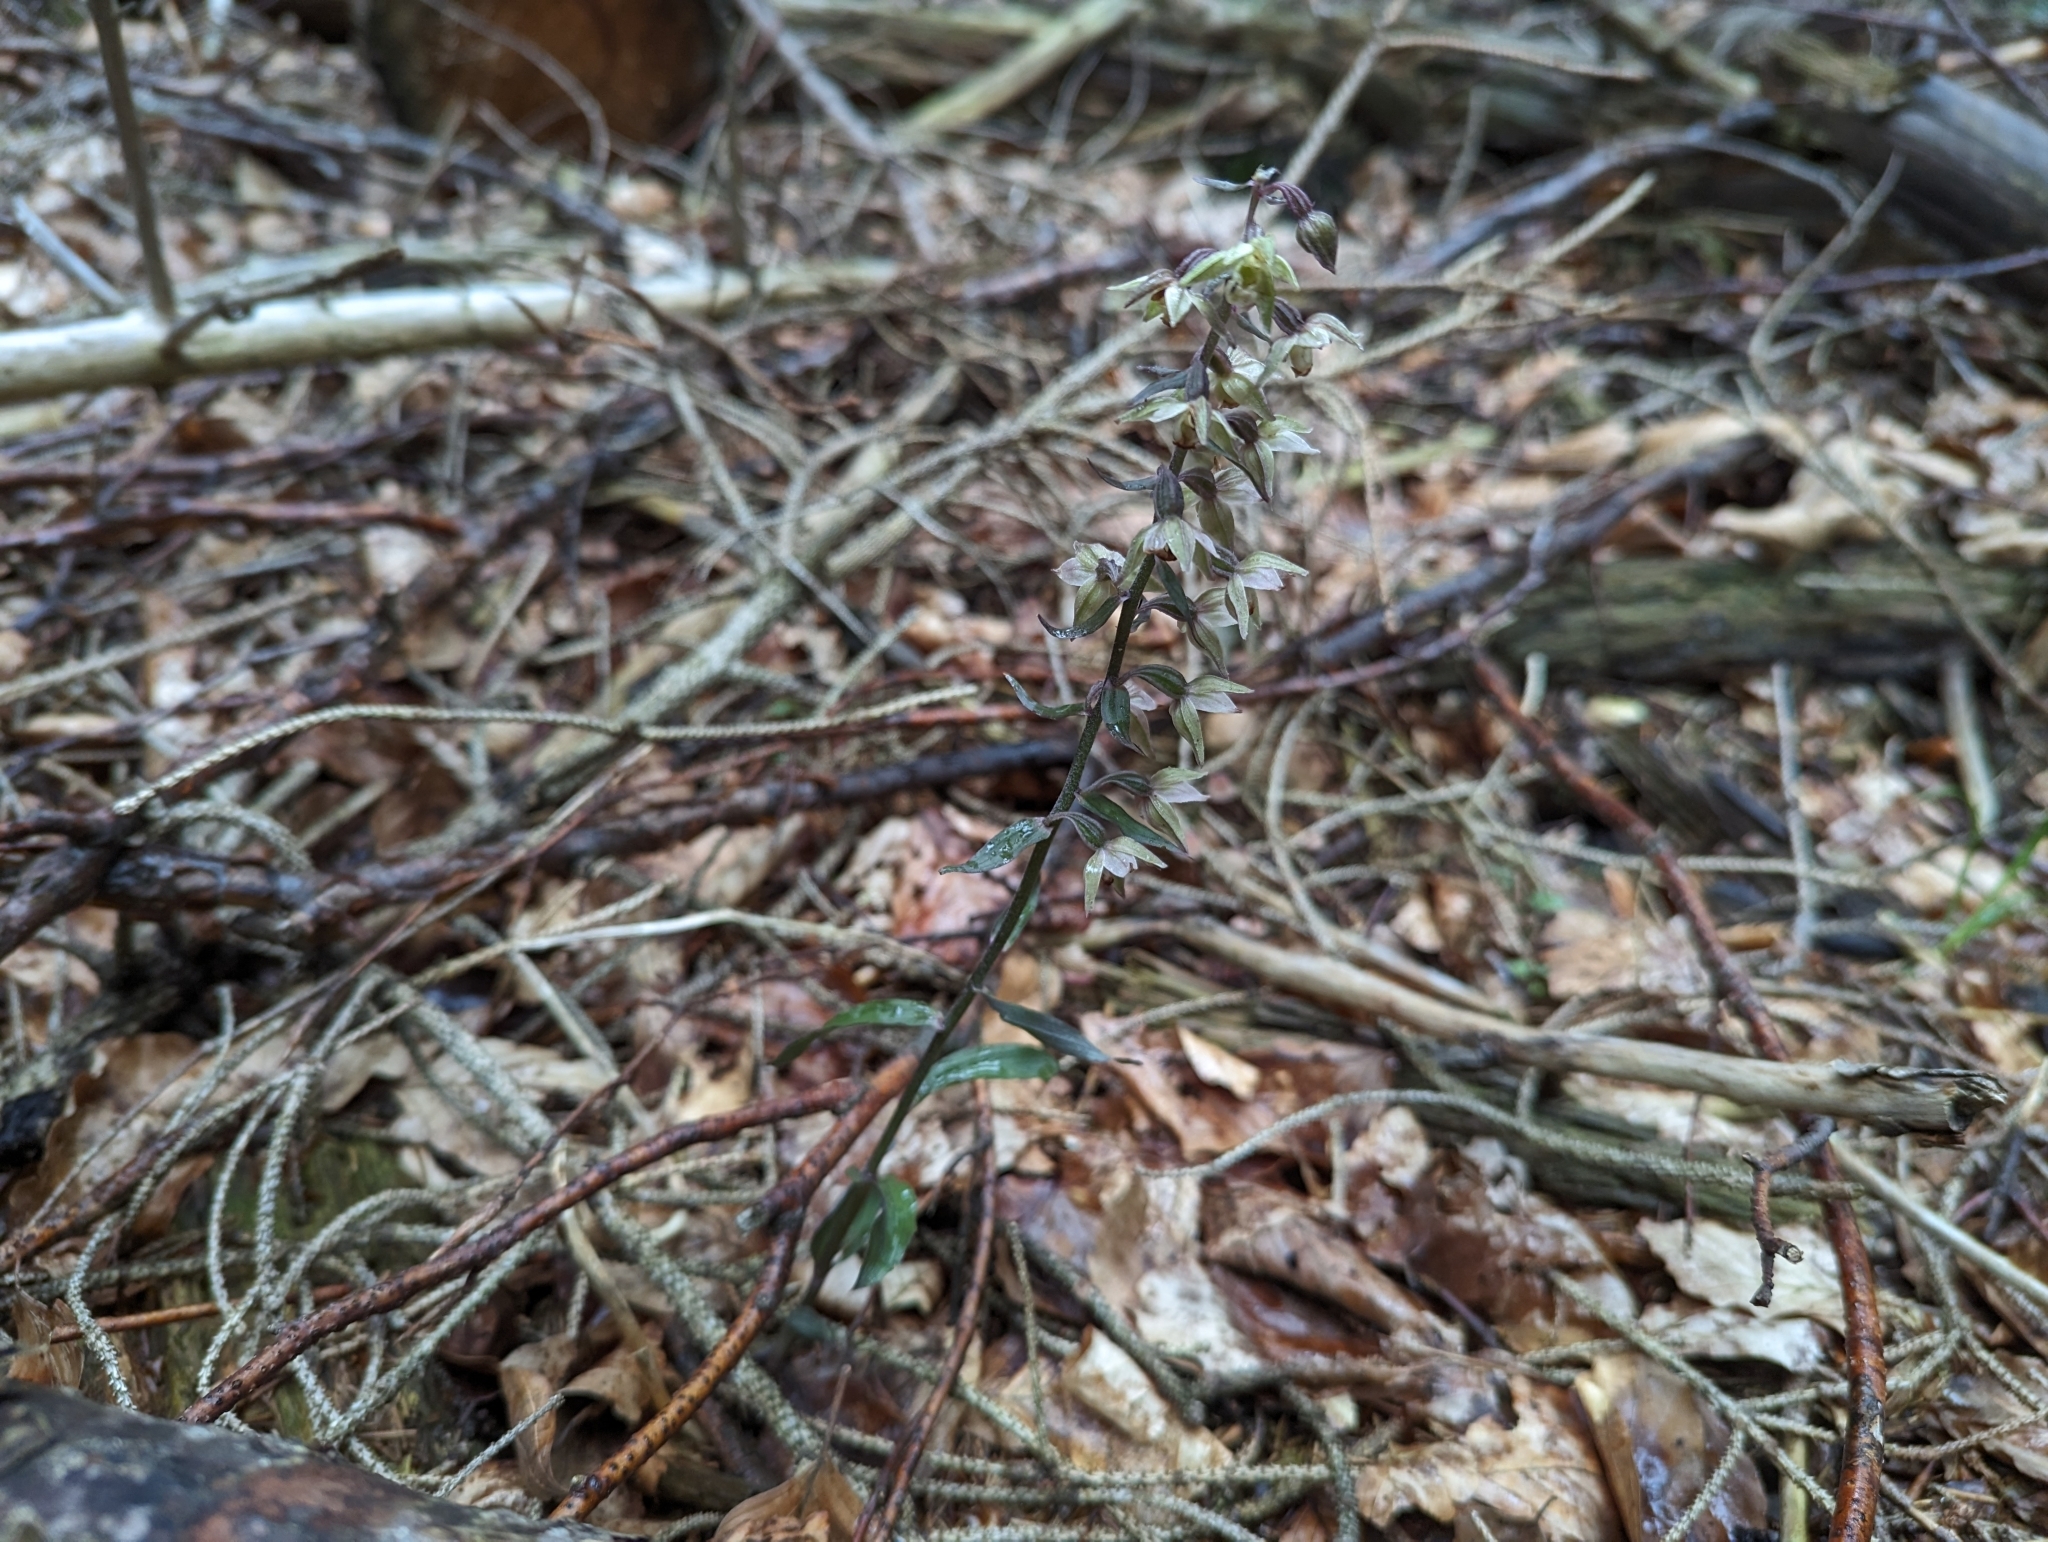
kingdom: Plantae
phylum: Tracheophyta
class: Liliopsida
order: Asparagales
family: Orchidaceae
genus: Epipactis
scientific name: Epipactis purpurata
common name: Violet helleborine
